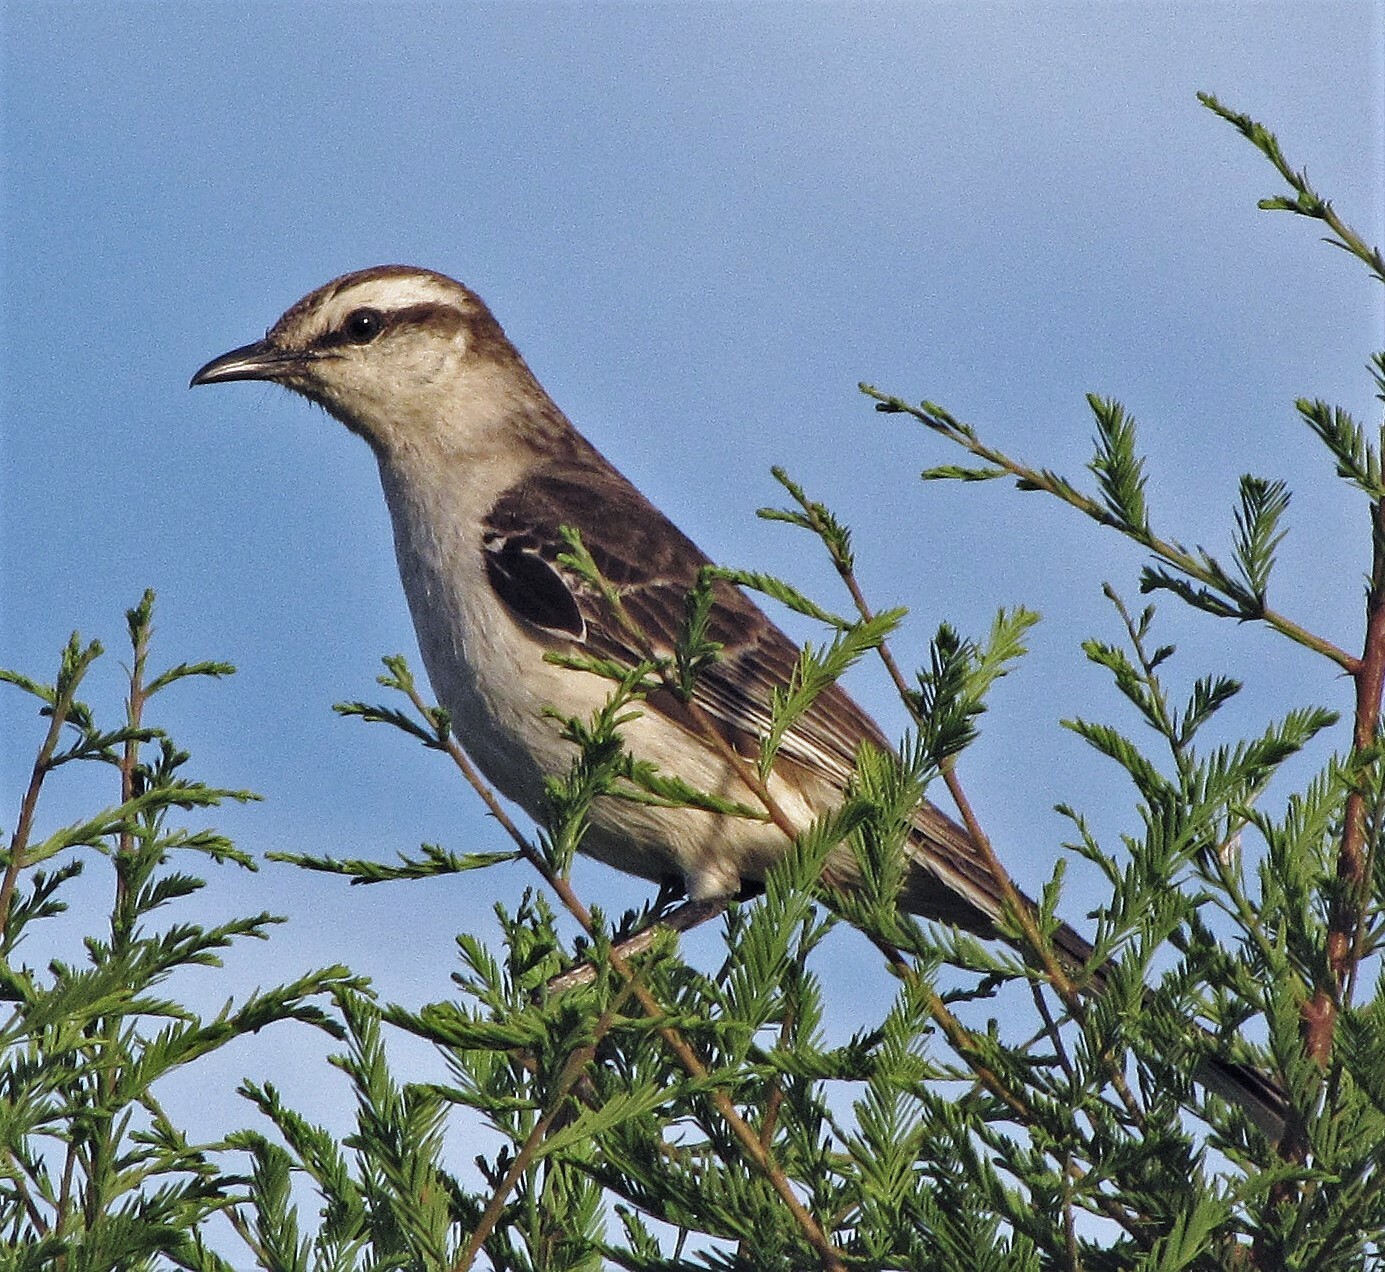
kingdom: Animalia
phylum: Chordata
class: Aves
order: Passeriformes
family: Mimidae
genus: Mimus
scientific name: Mimus saturninus
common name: Chalk-browed mockingbird
